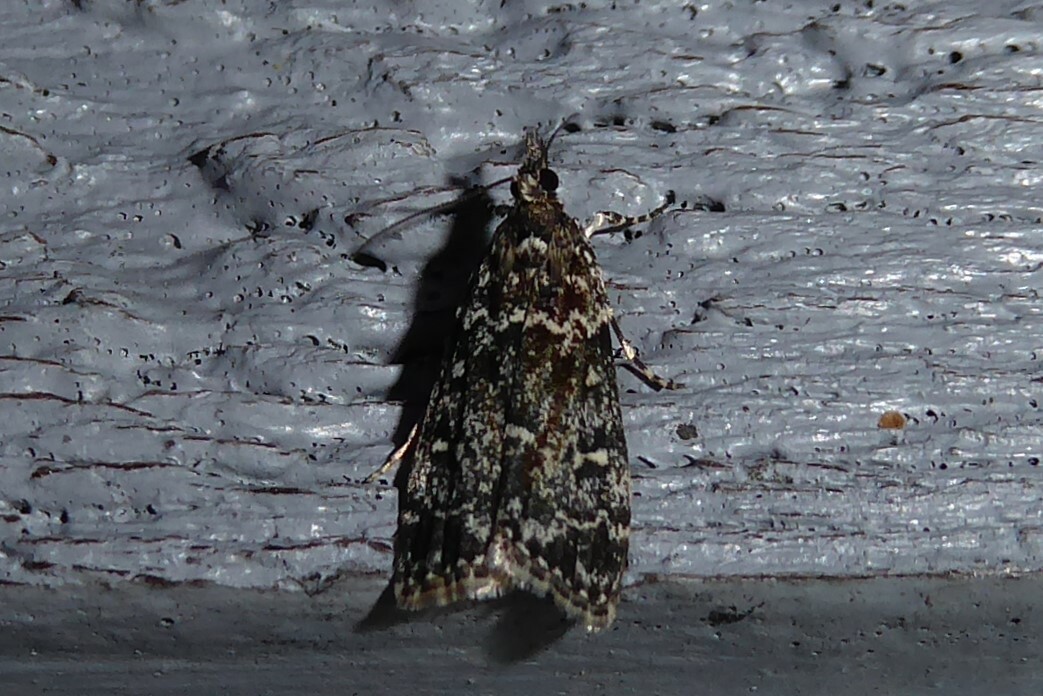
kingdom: Animalia
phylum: Arthropoda
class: Insecta
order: Lepidoptera
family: Crambidae
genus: Eudonia
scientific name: Eudonia philerga
